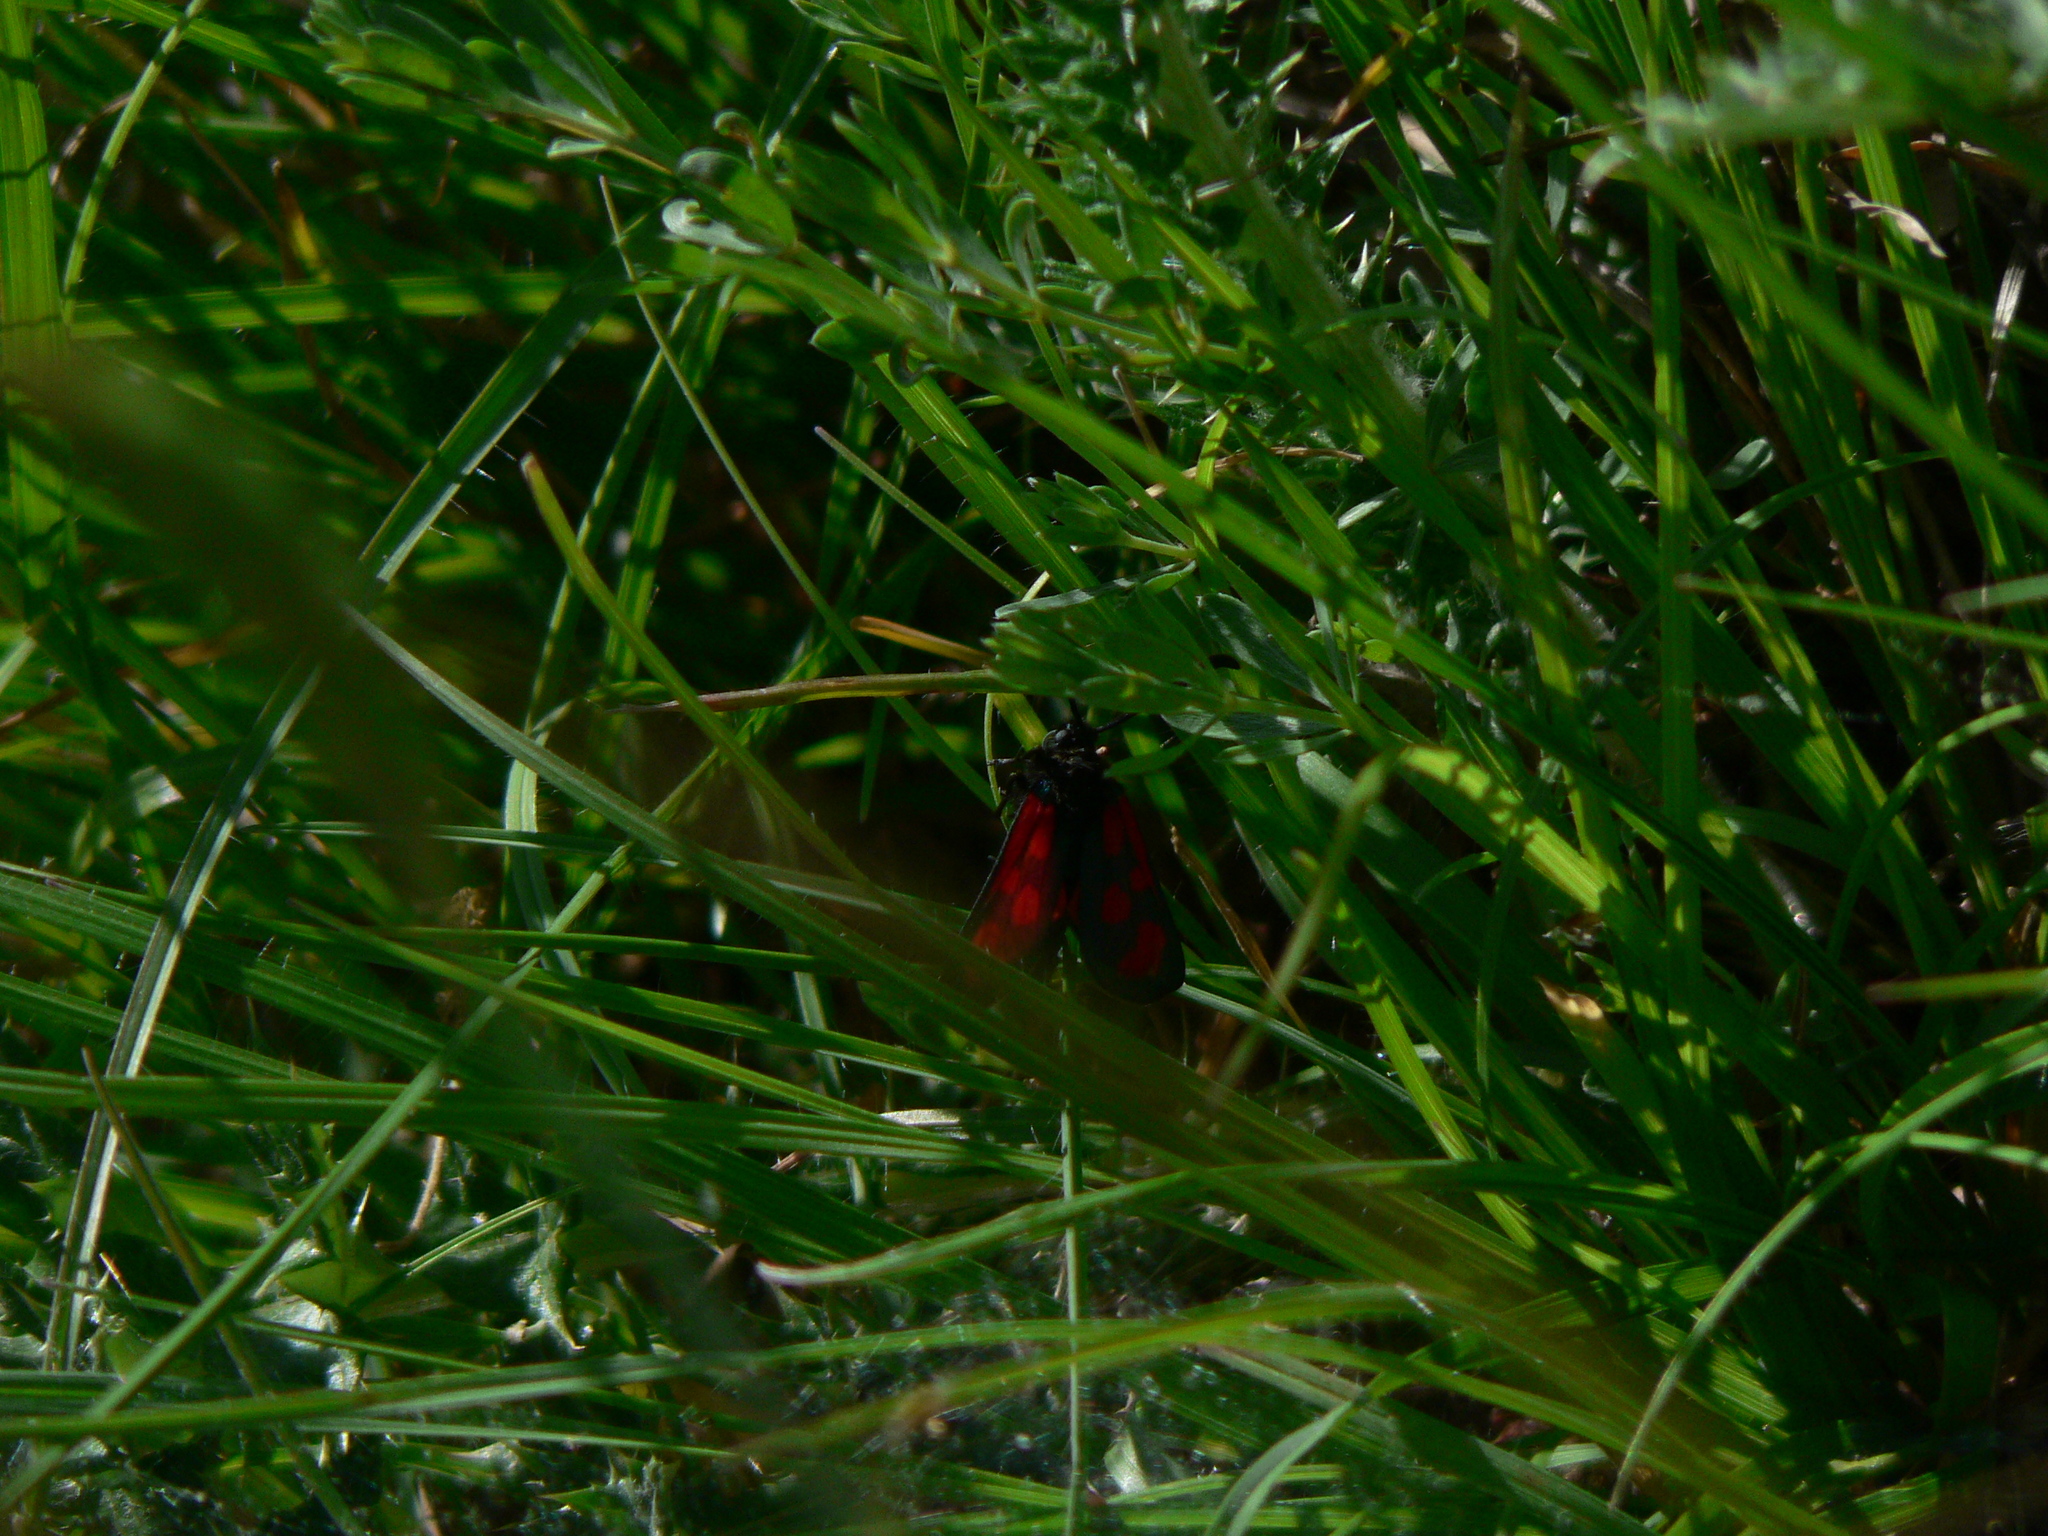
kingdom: Animalia
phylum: Arthropoda
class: Insecta
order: Lepidoptera
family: Zygaenidae
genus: Zygaena
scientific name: Zygaena loti
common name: Slender scotch burnet
